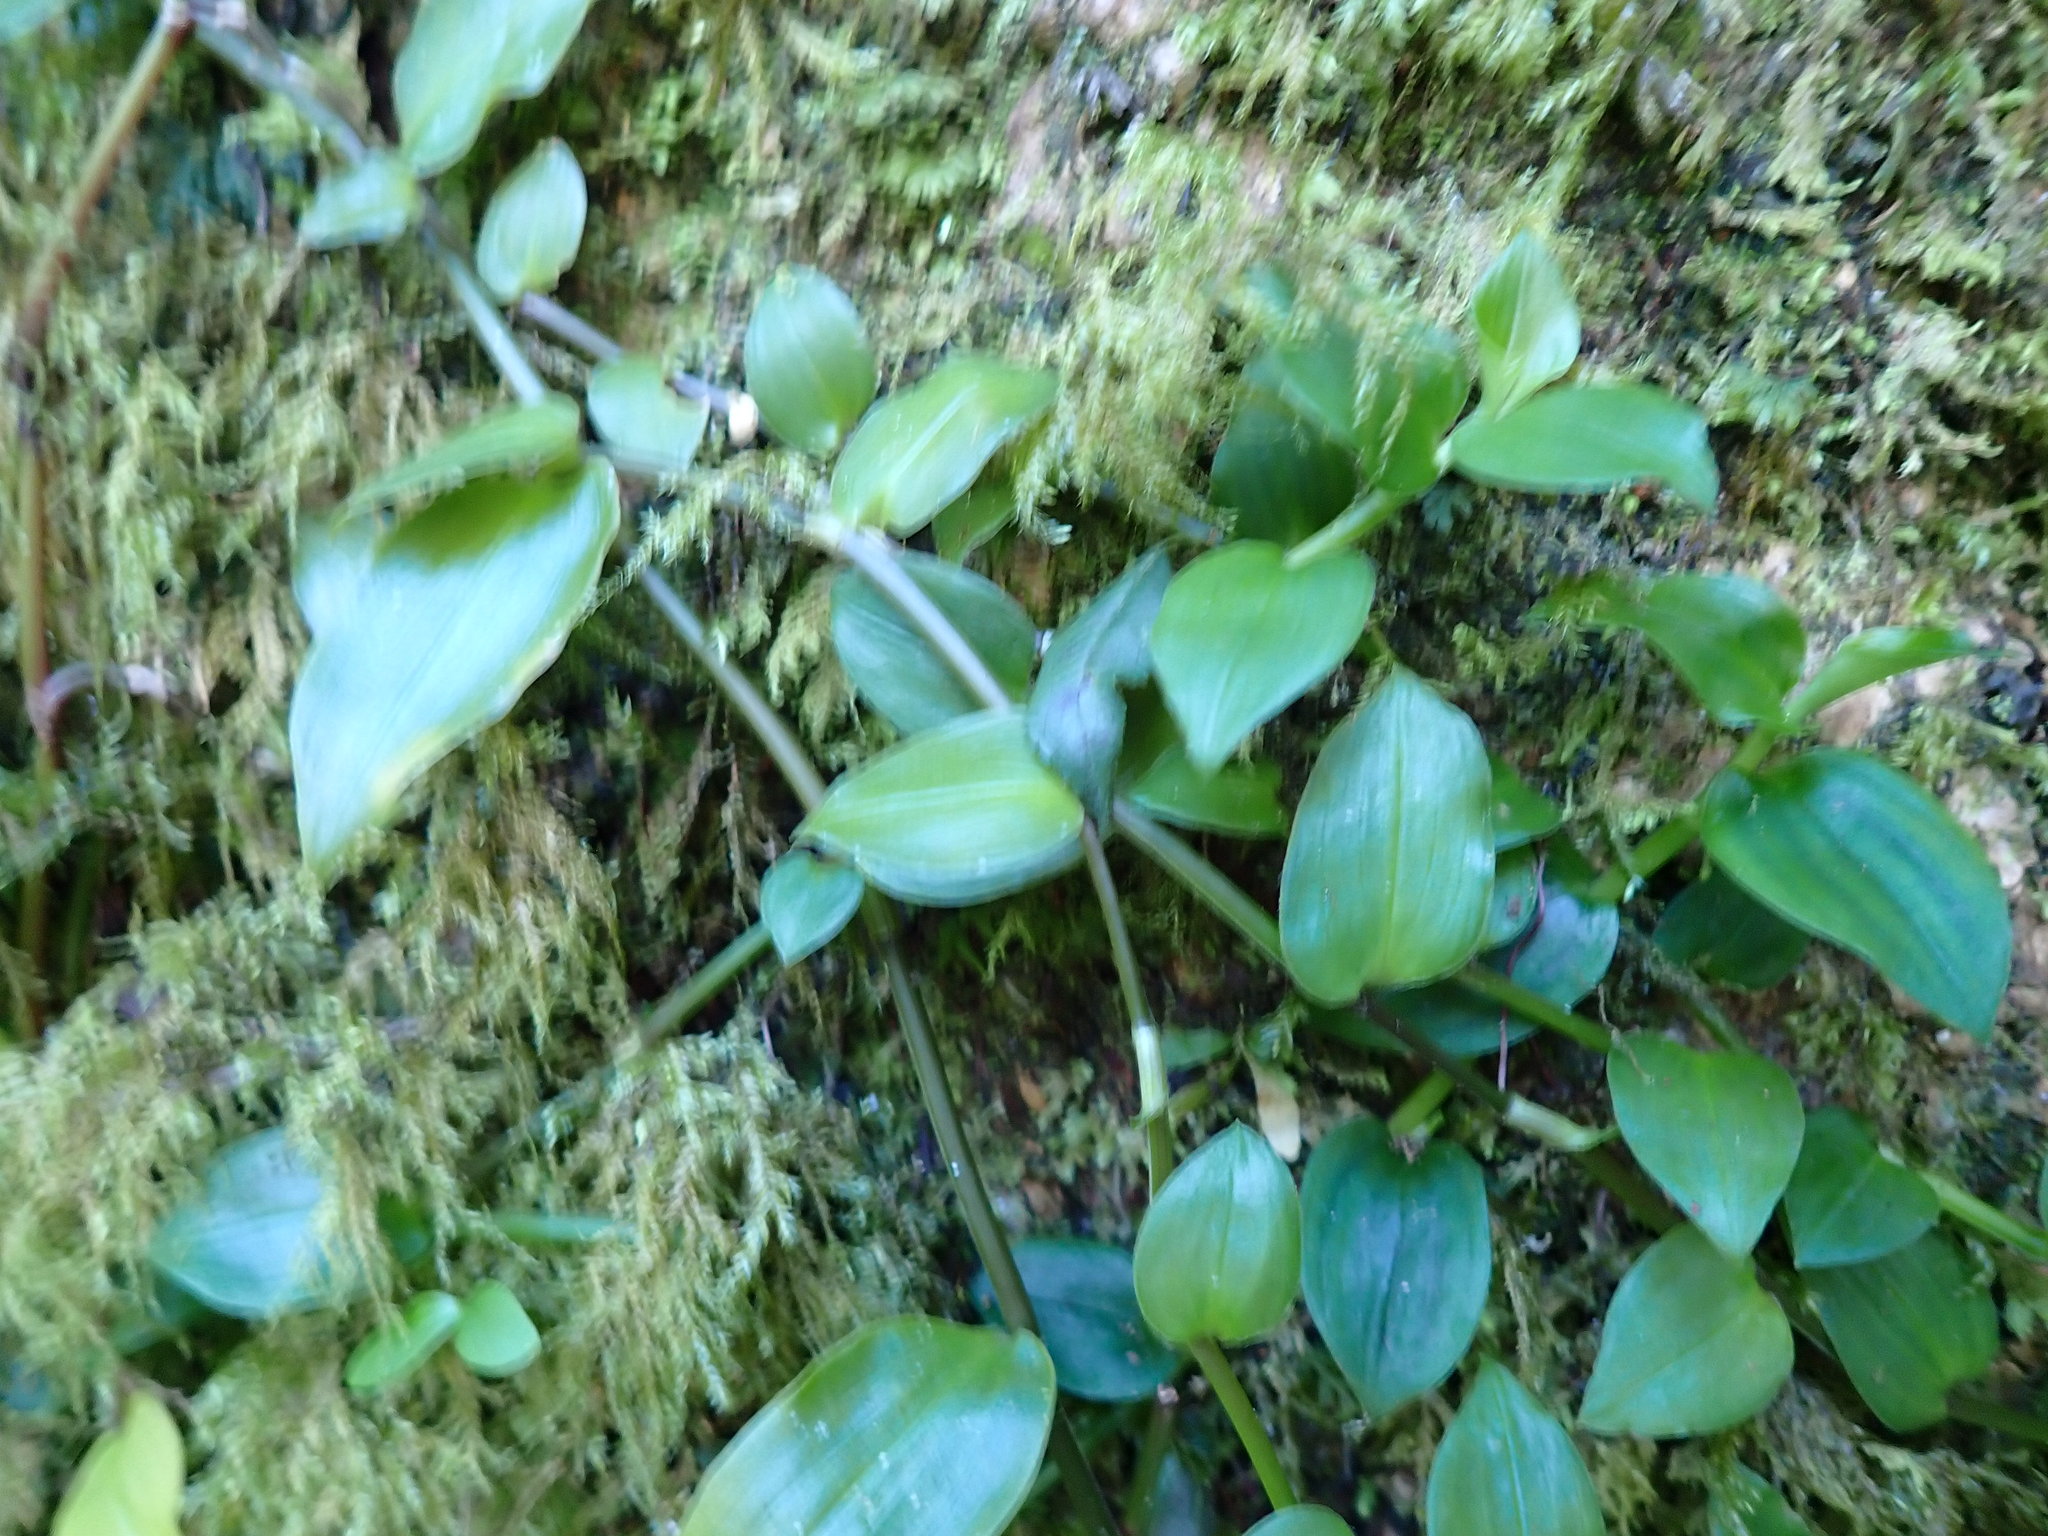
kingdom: Plantae
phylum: Tracheophyta
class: Liliopsida
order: Commelinales
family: Commelinaceae
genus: Tradescantia
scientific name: Tradescantia fluminensis
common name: Wandering-jew
